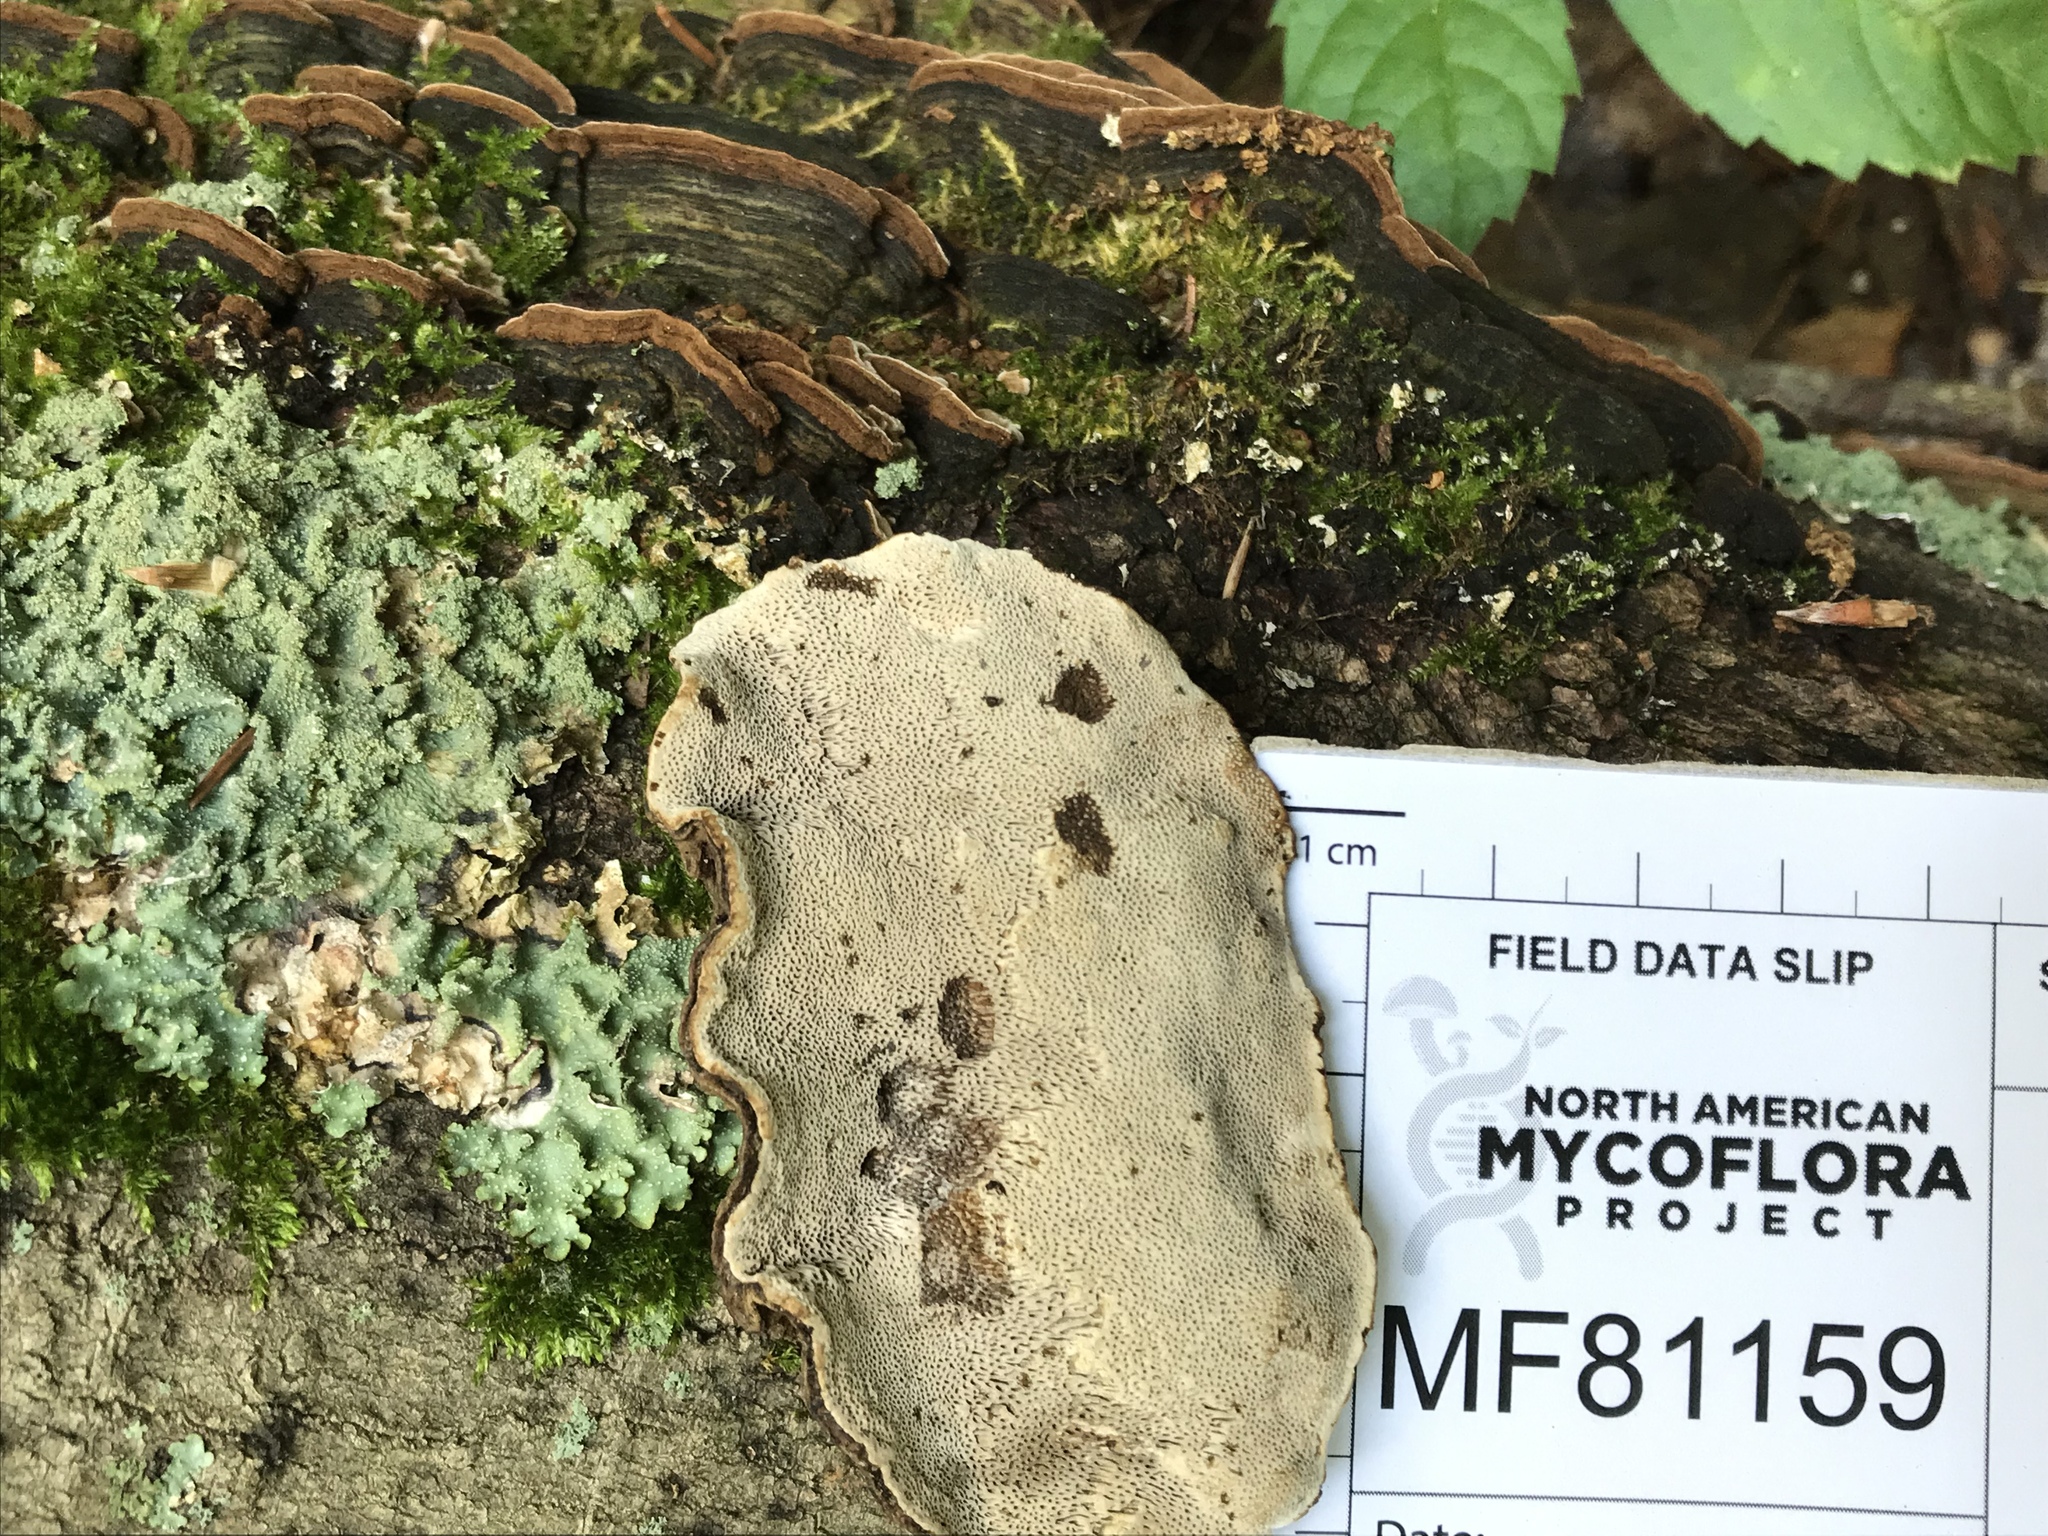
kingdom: Fungi
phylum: Basidiomycota
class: Agaricomycetes
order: Polyporales
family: Polyporaceae
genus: Podofomes
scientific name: Podofomes mollis
